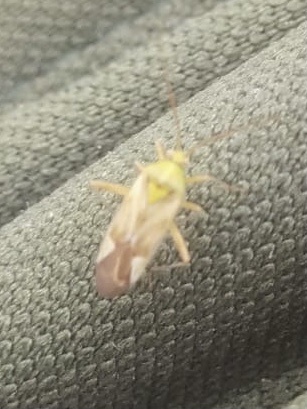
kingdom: Animalia
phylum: Arthropoda
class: Insecta
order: Hemiptera
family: Miridae
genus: Adelphocoris
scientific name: Adelphocoris lineolatus
